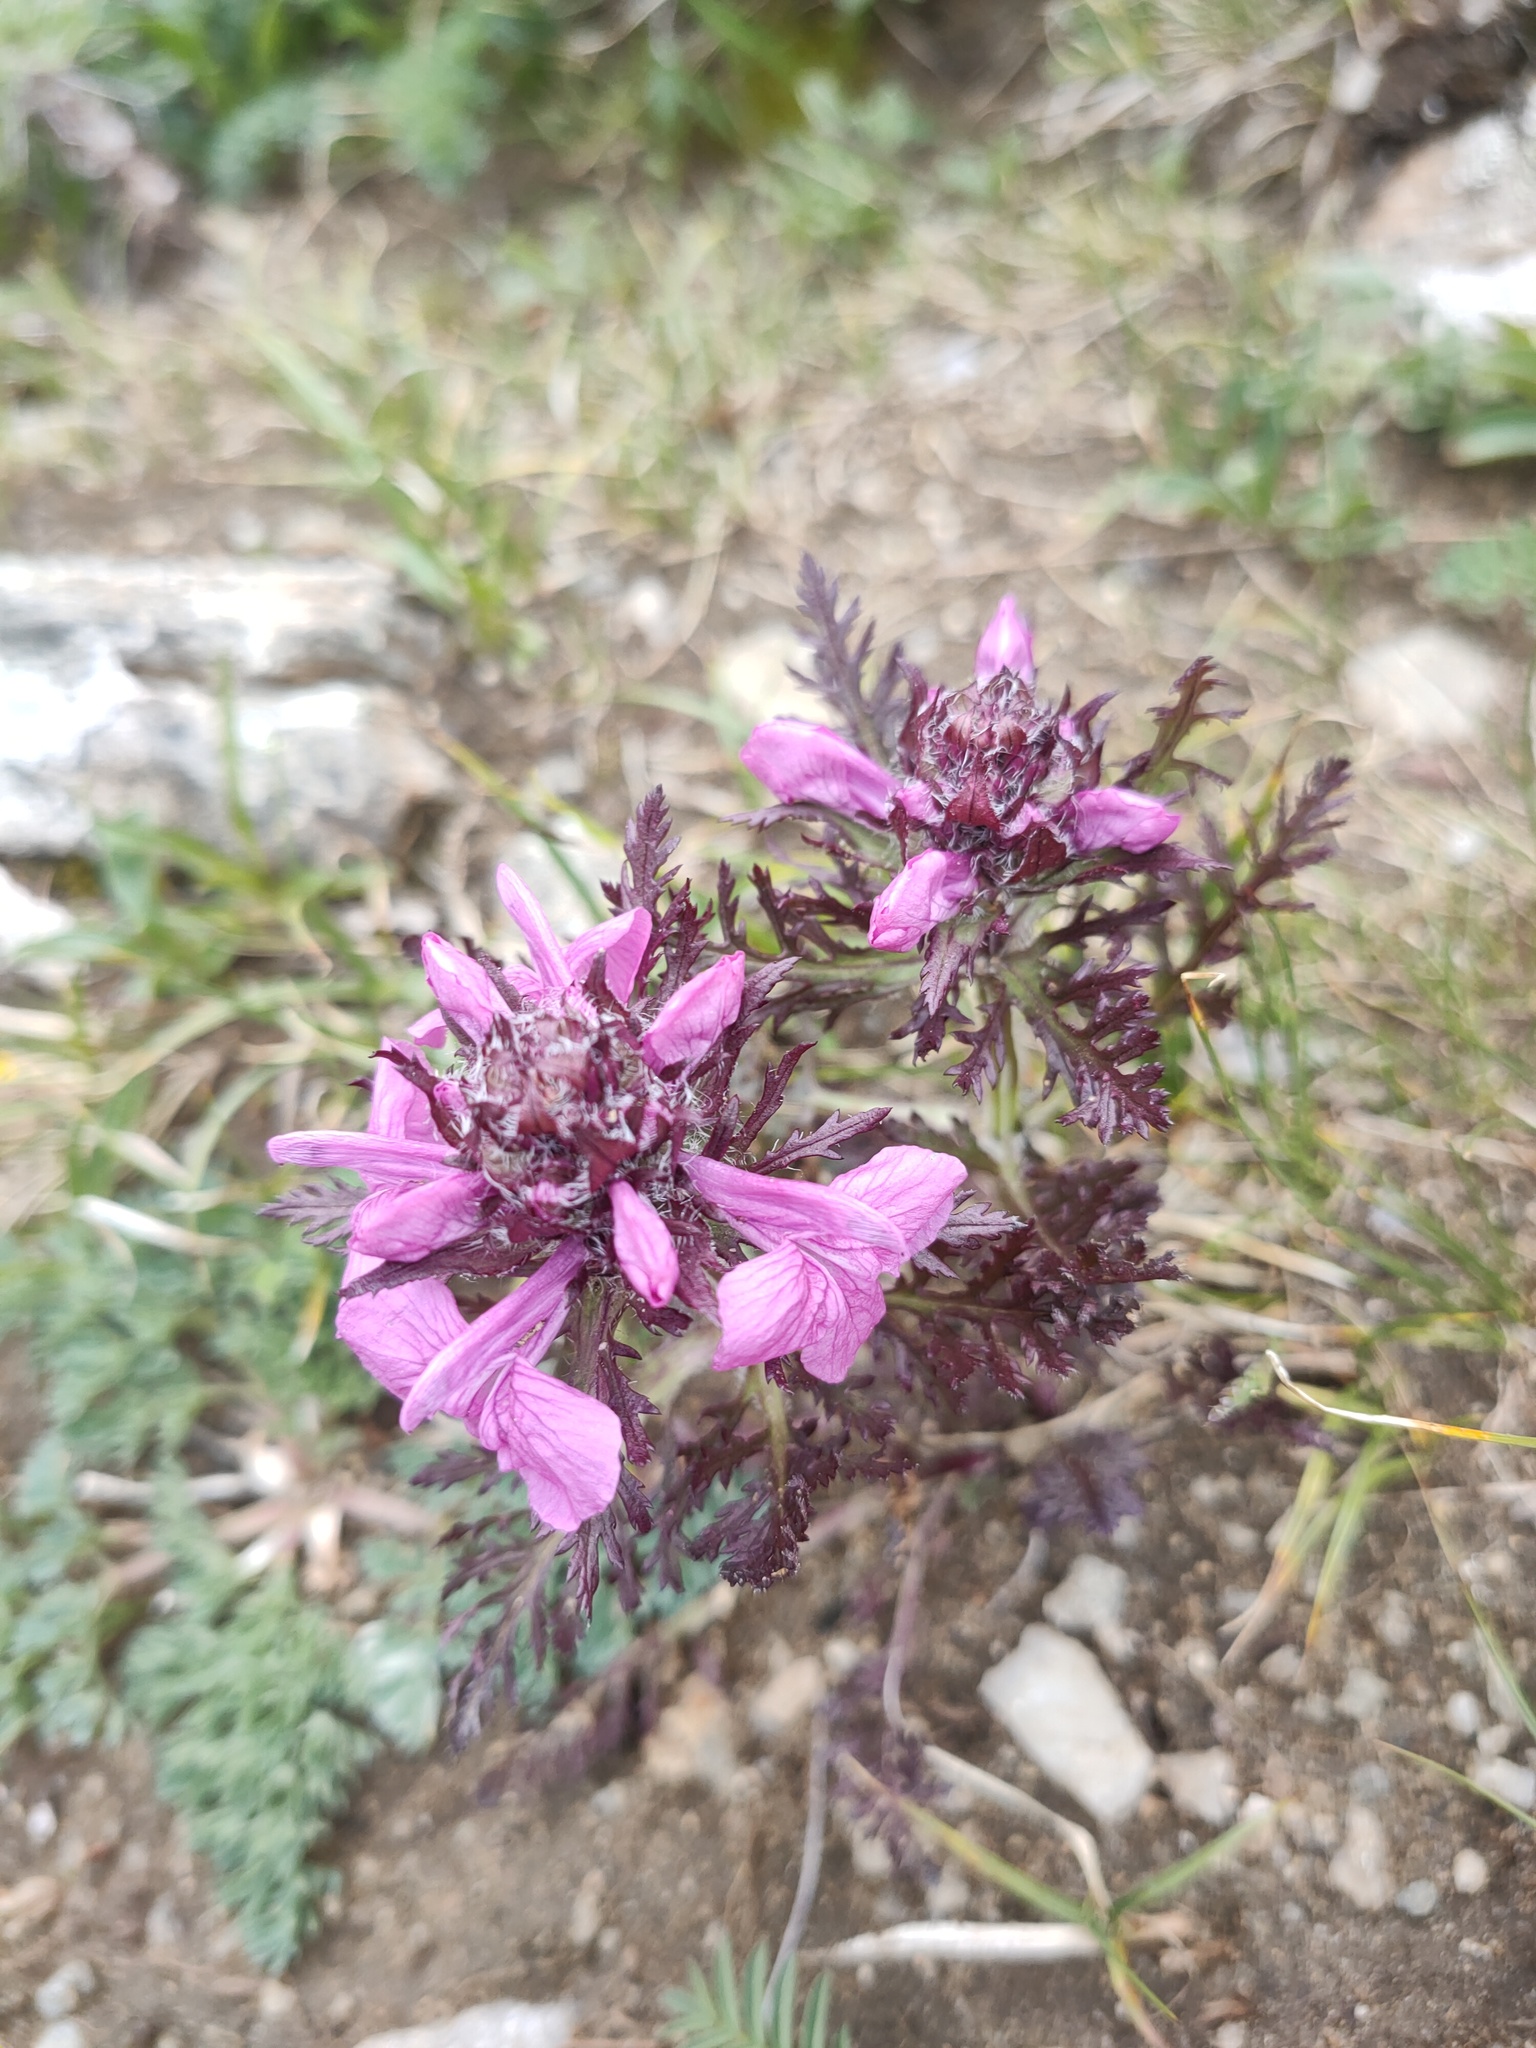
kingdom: Plantae
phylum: Tracheophyta
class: Magnoliopsida
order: Lamiales
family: Orobanchaceae
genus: Pedicularis
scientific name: Pedicularis amoena
